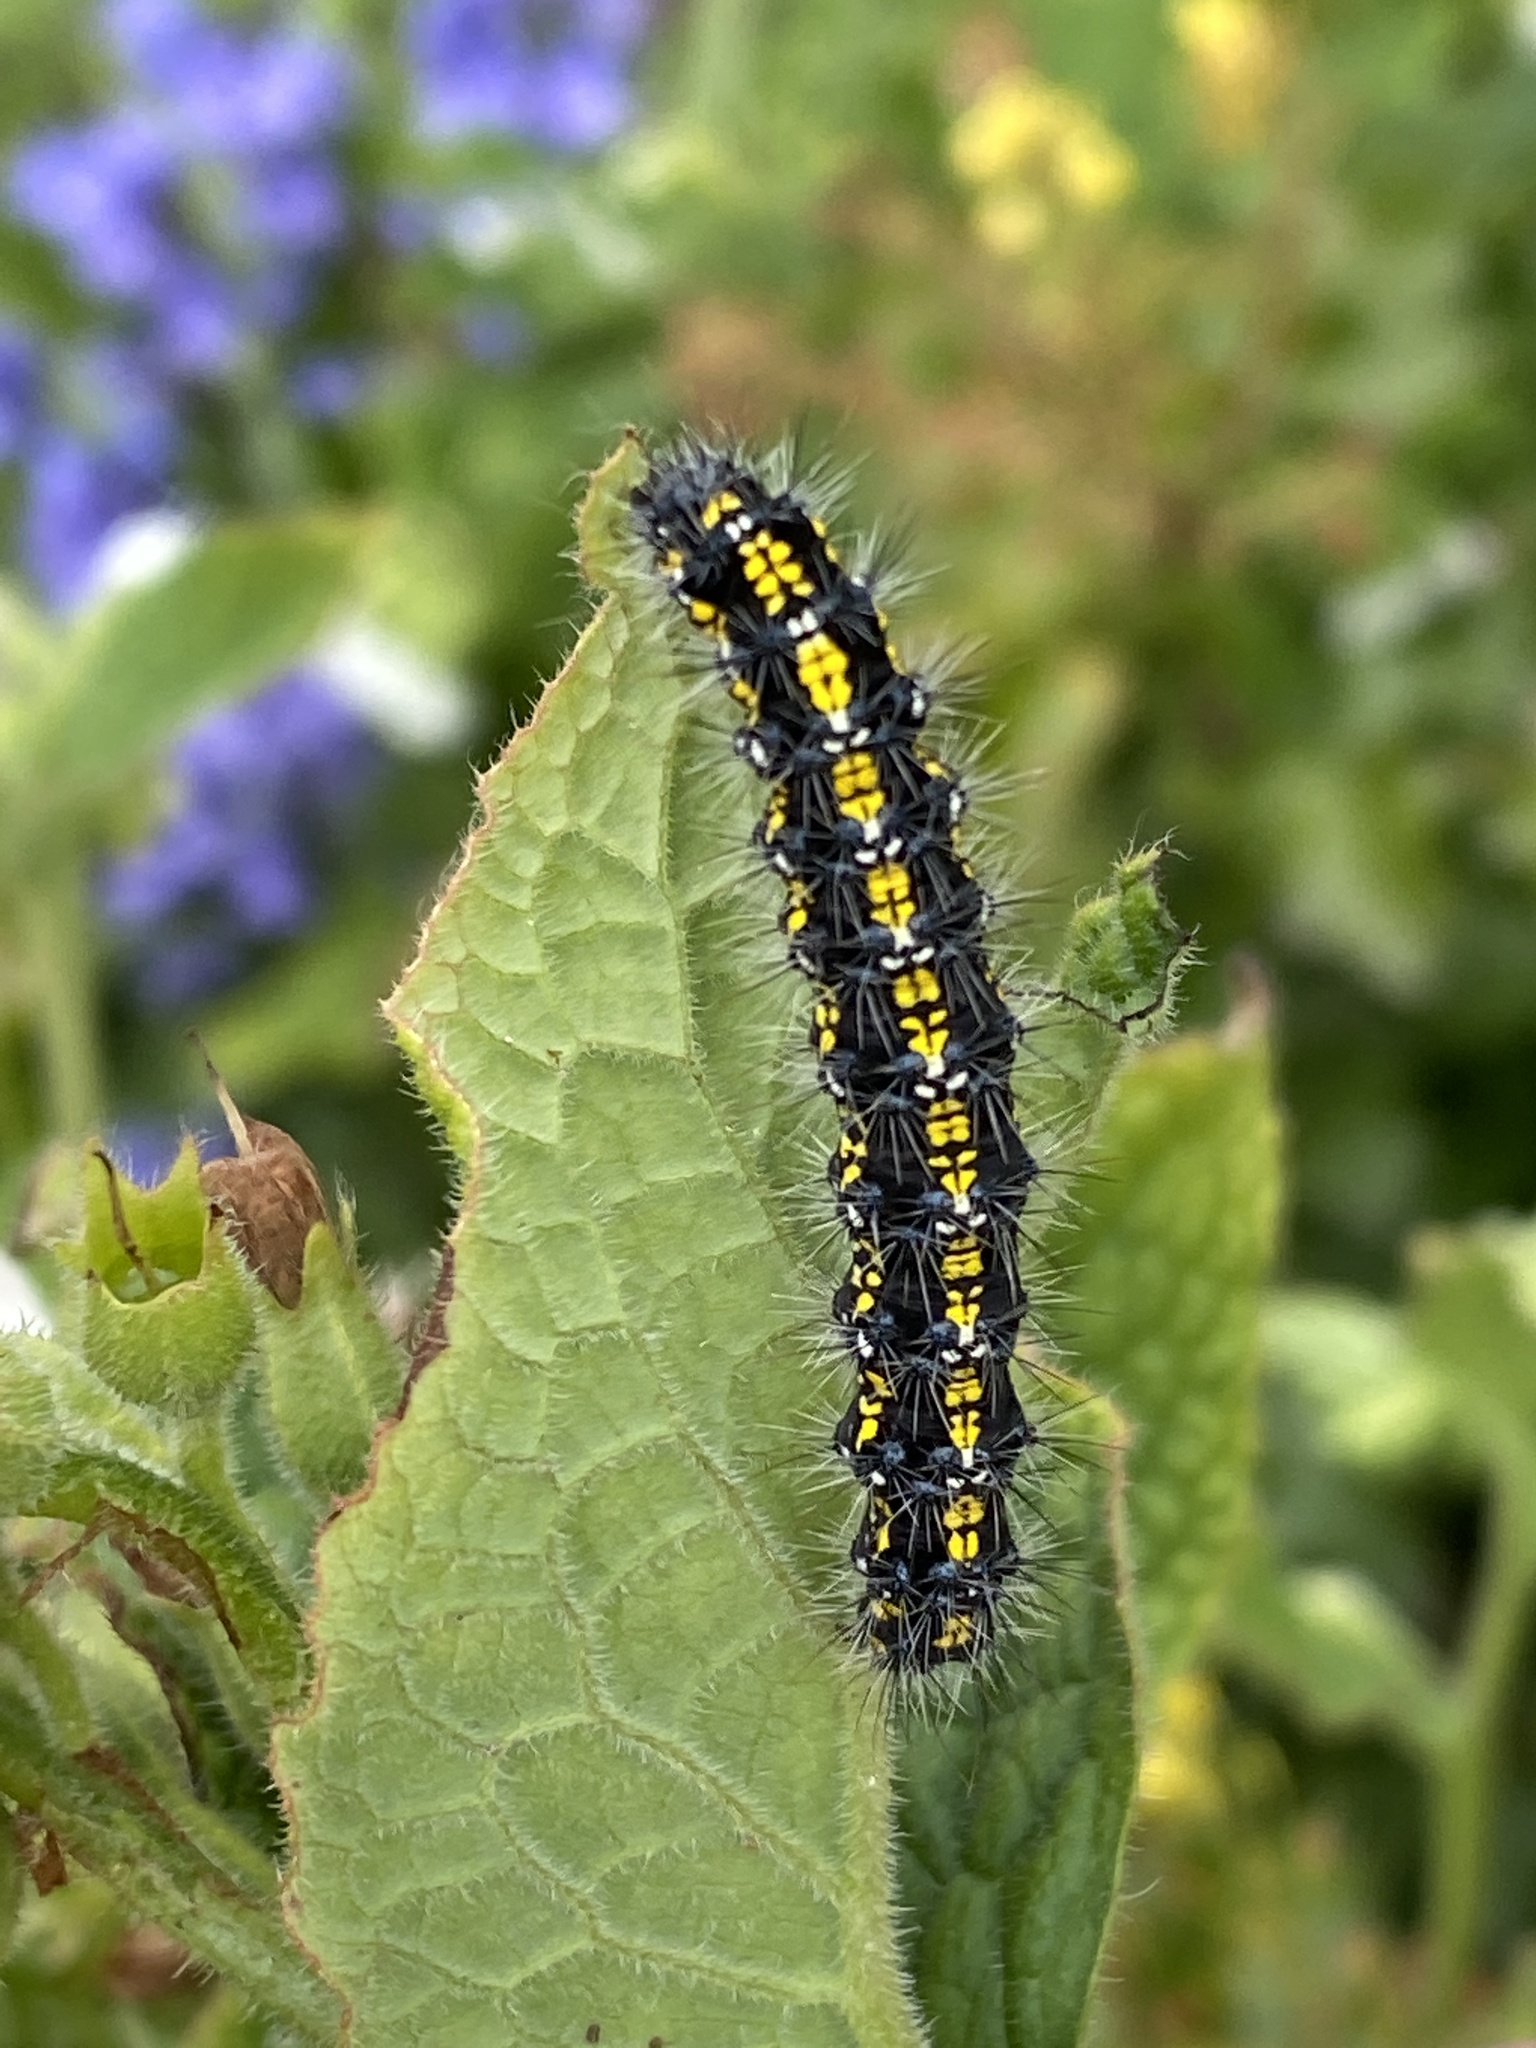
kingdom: Animalia
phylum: Arthropoda
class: Insecta
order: Lepidoptera
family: Erebidae
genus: Callimorpha
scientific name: Callimorpha dominula
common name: Scarlet tiger
